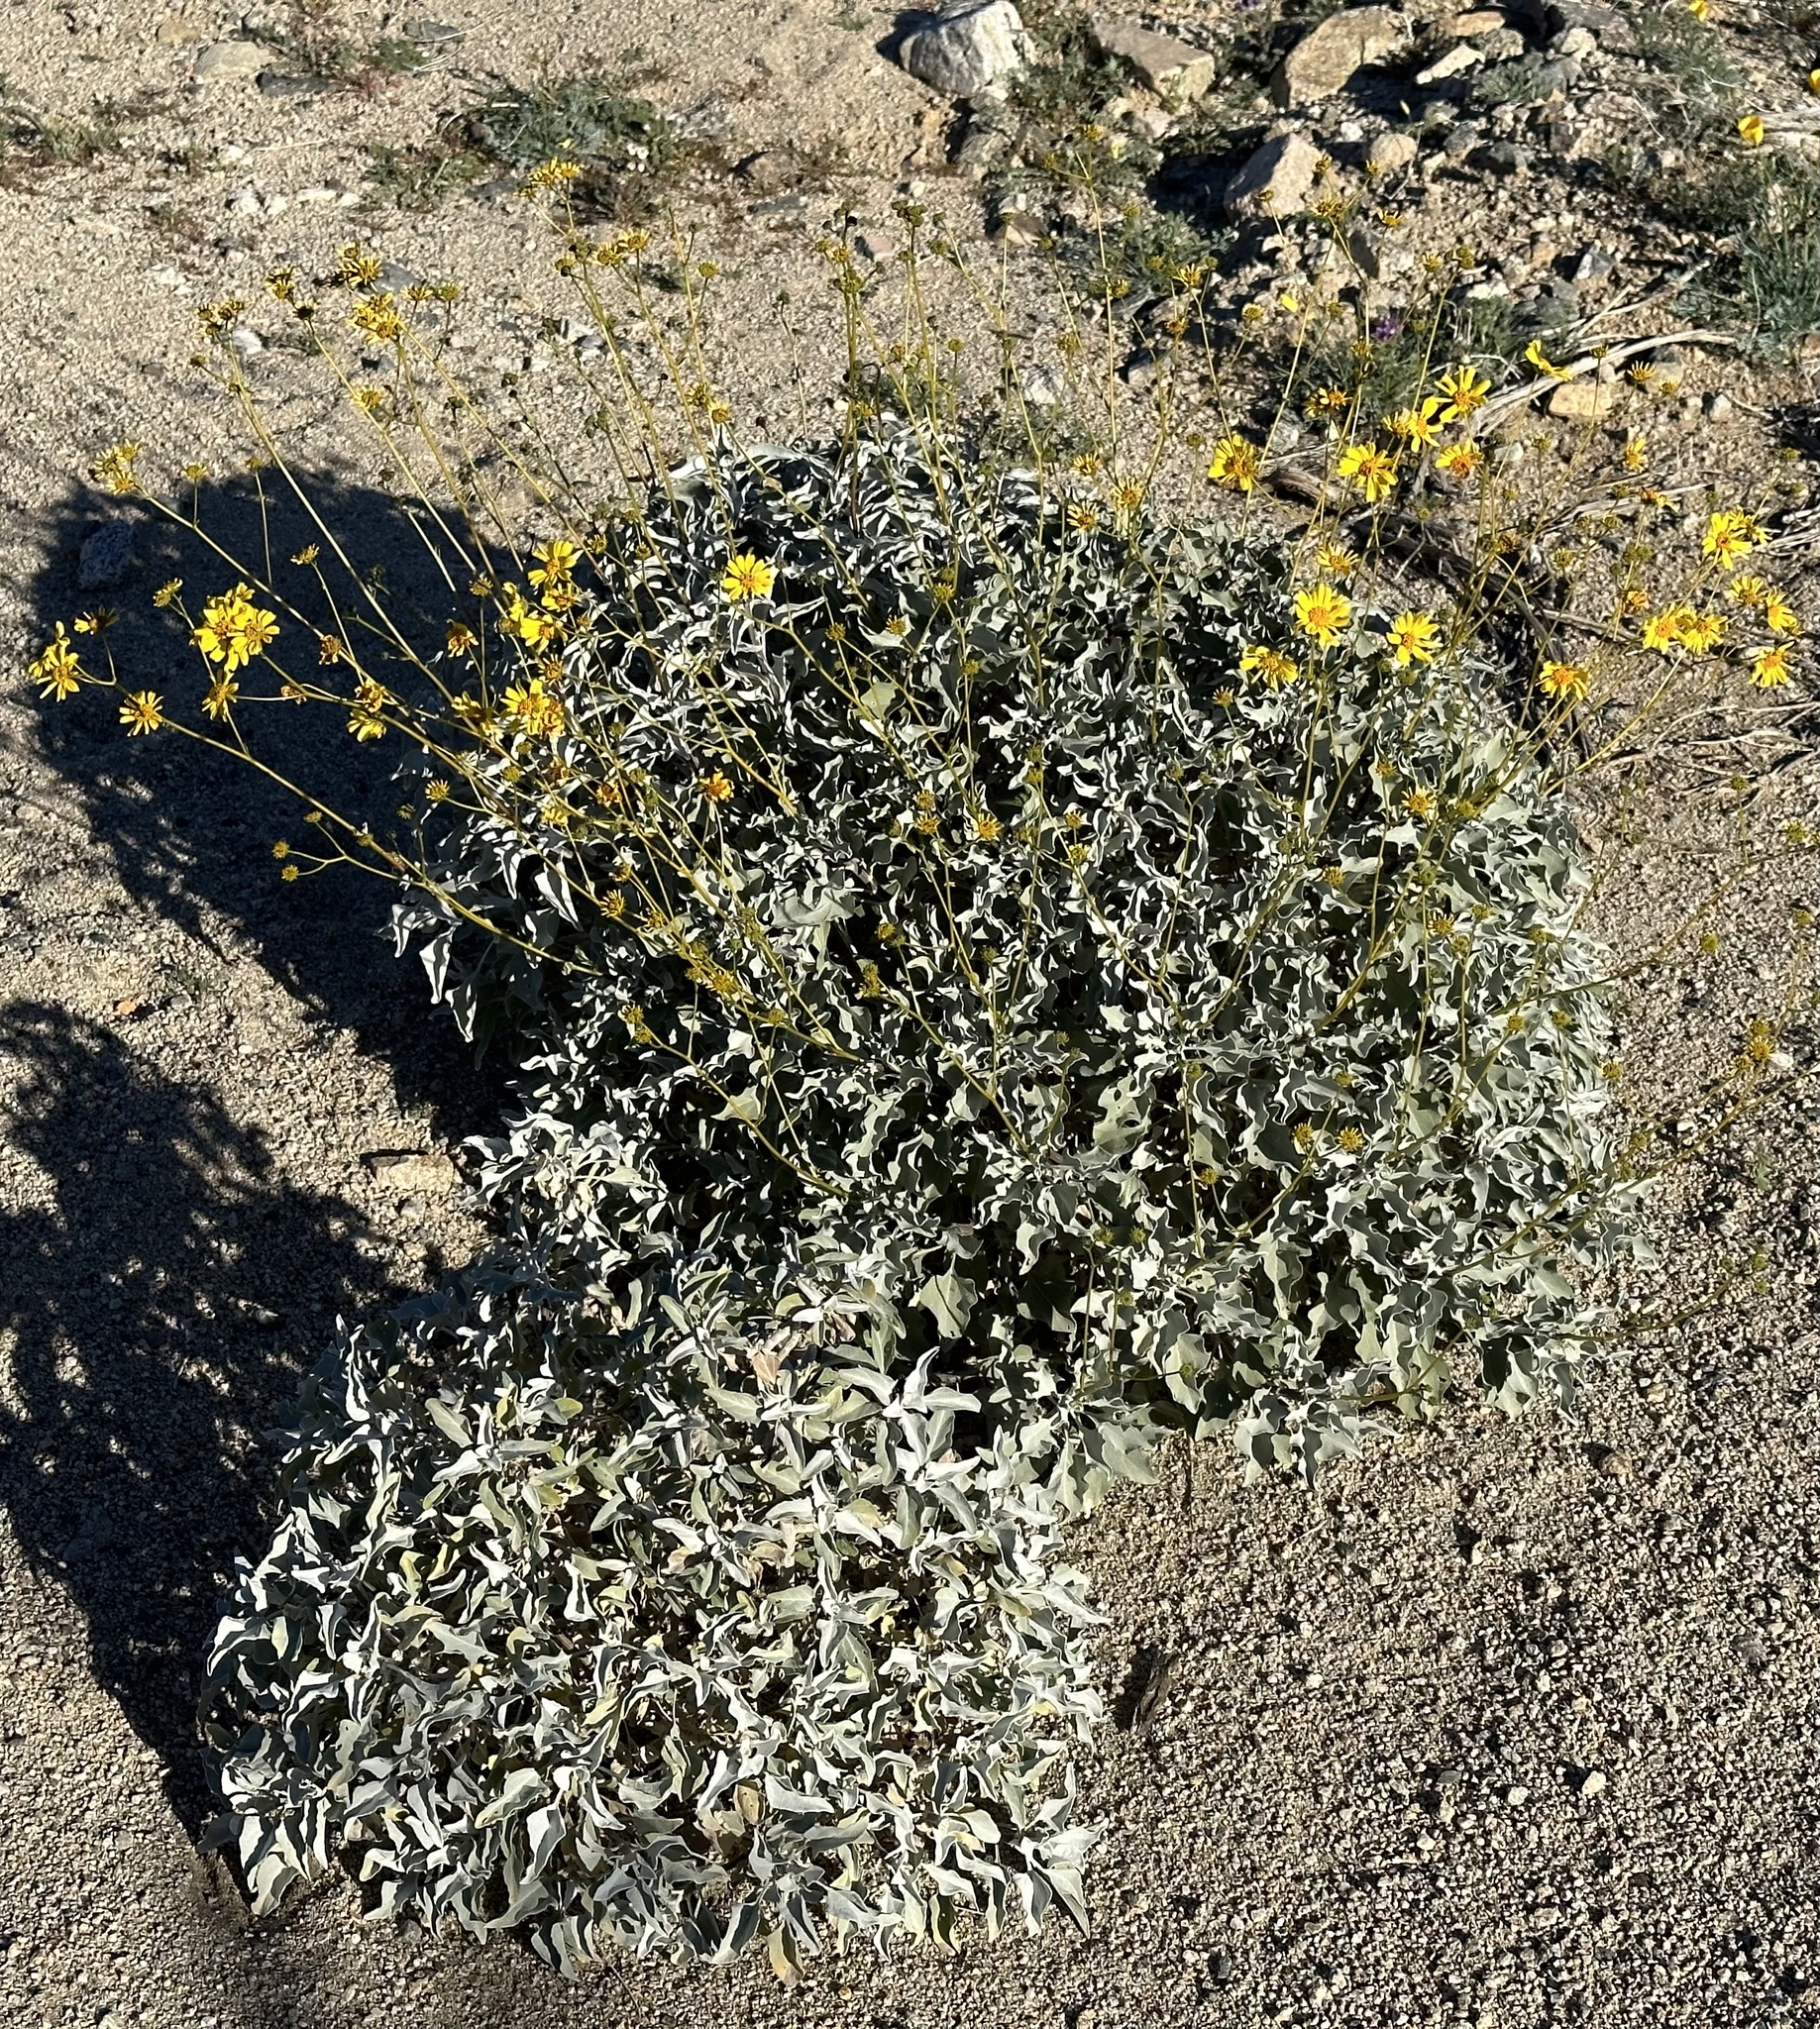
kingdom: Plantae
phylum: Tracheophyta
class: Magnoliopsida
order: Asterales
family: Asteraceae
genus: Encelia
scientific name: Encelia farinosa
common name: Brittlebush
